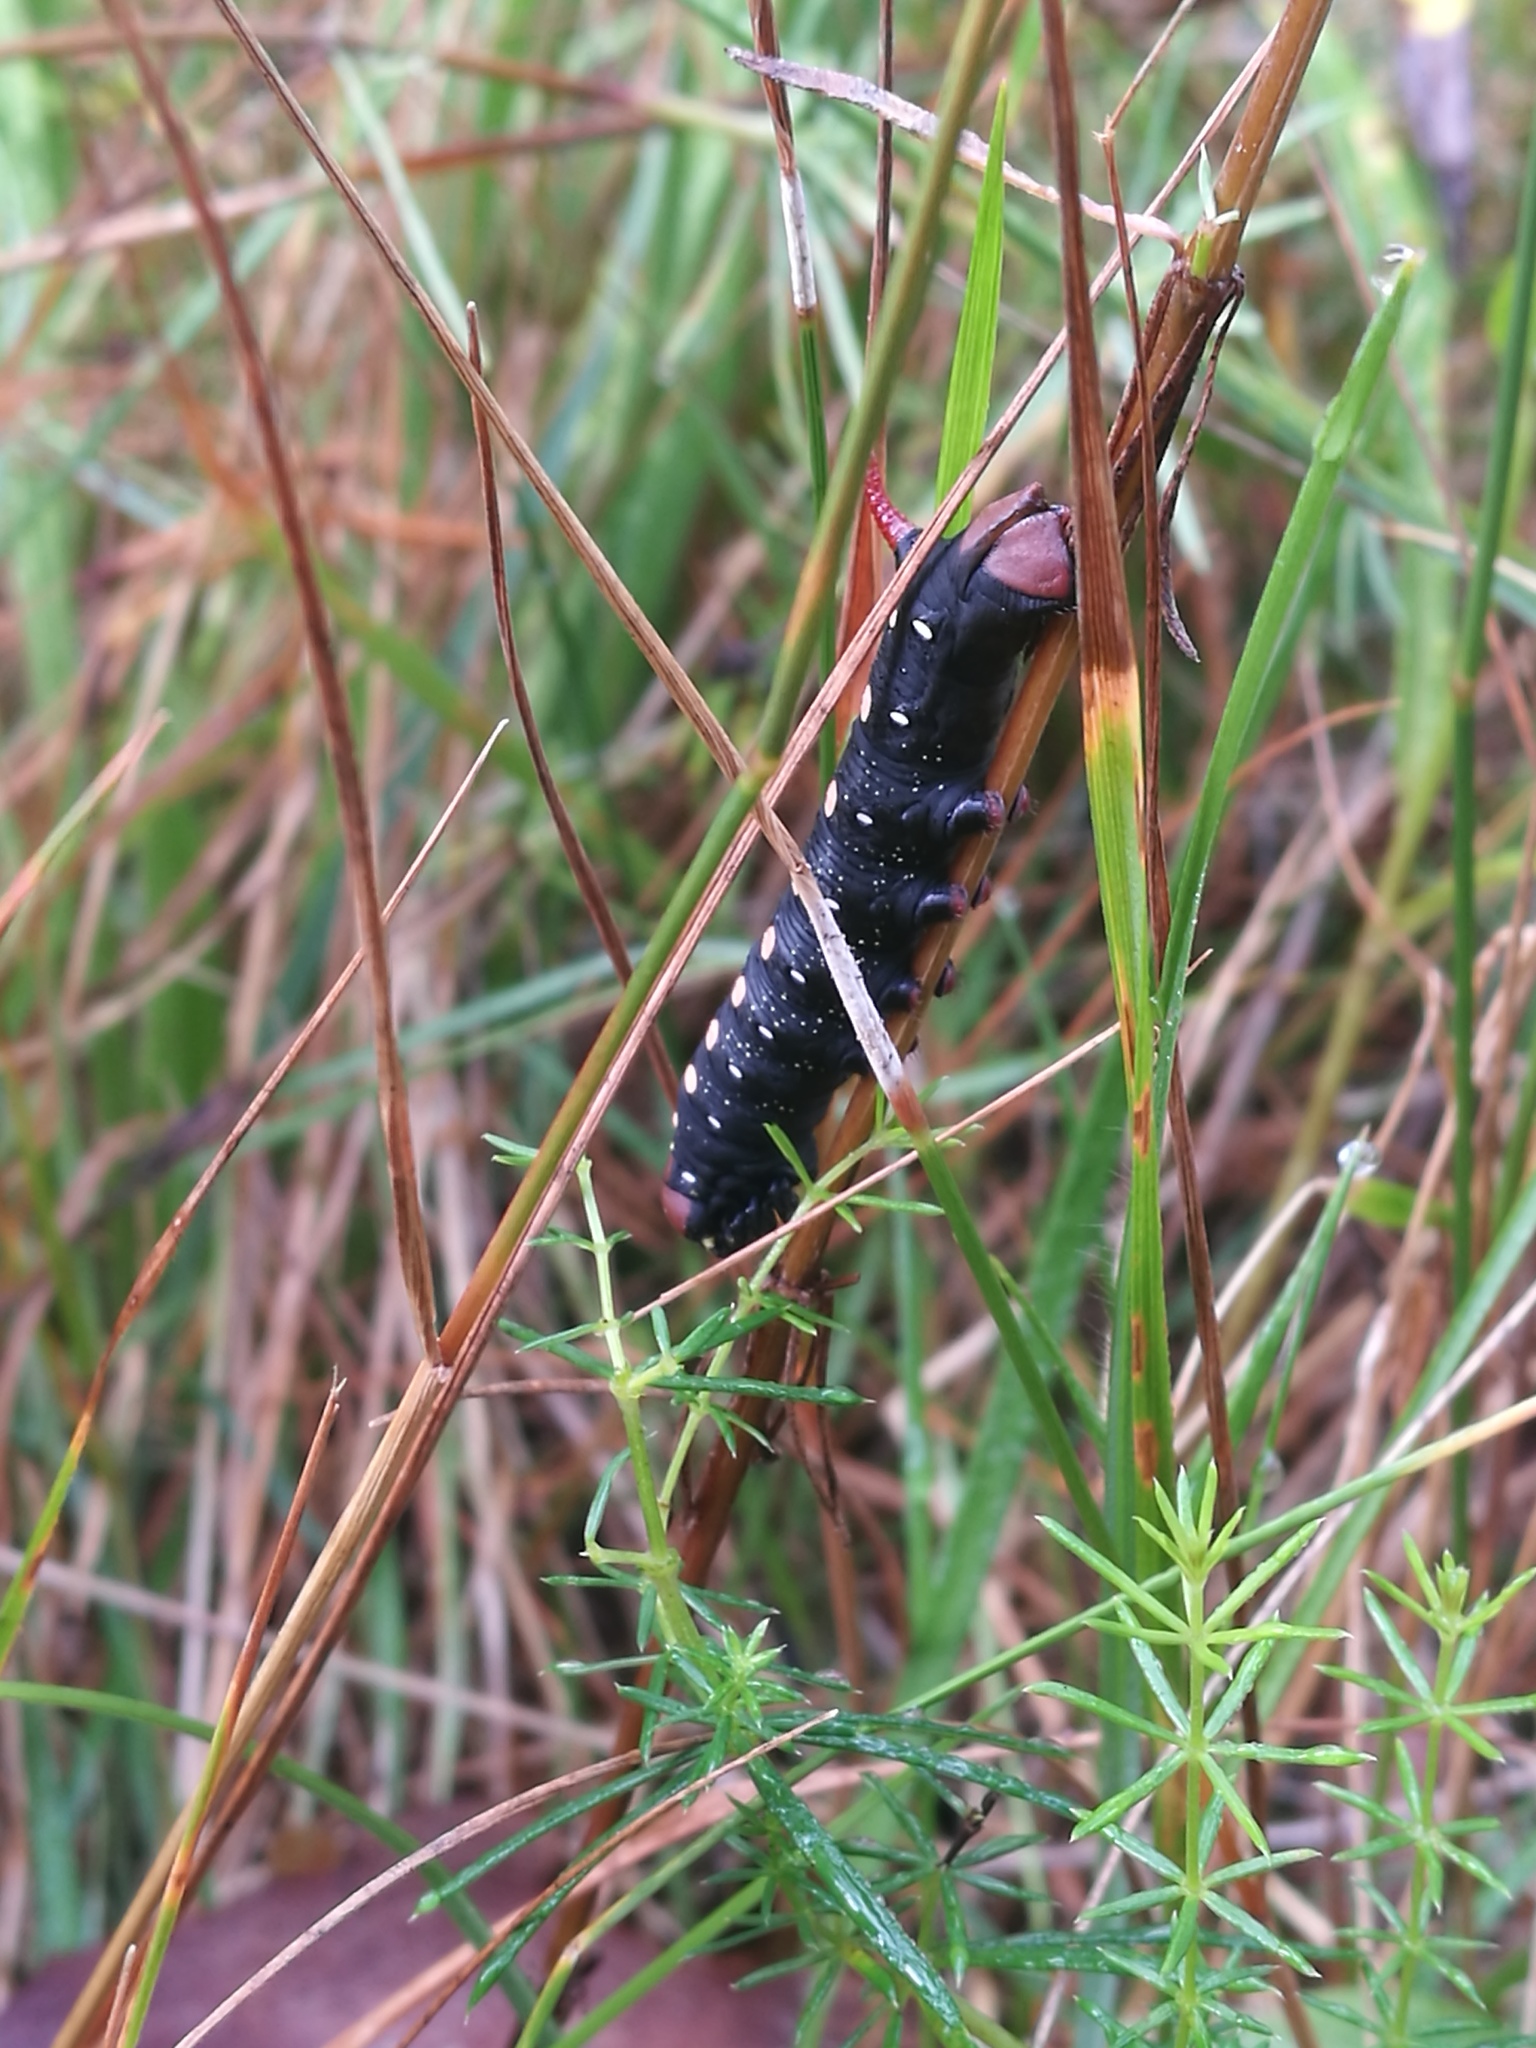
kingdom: Animalia
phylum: Arthropoda
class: Insecta
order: Lepidoptera
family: Sphingidae
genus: Hyles
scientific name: Hyles gallii
